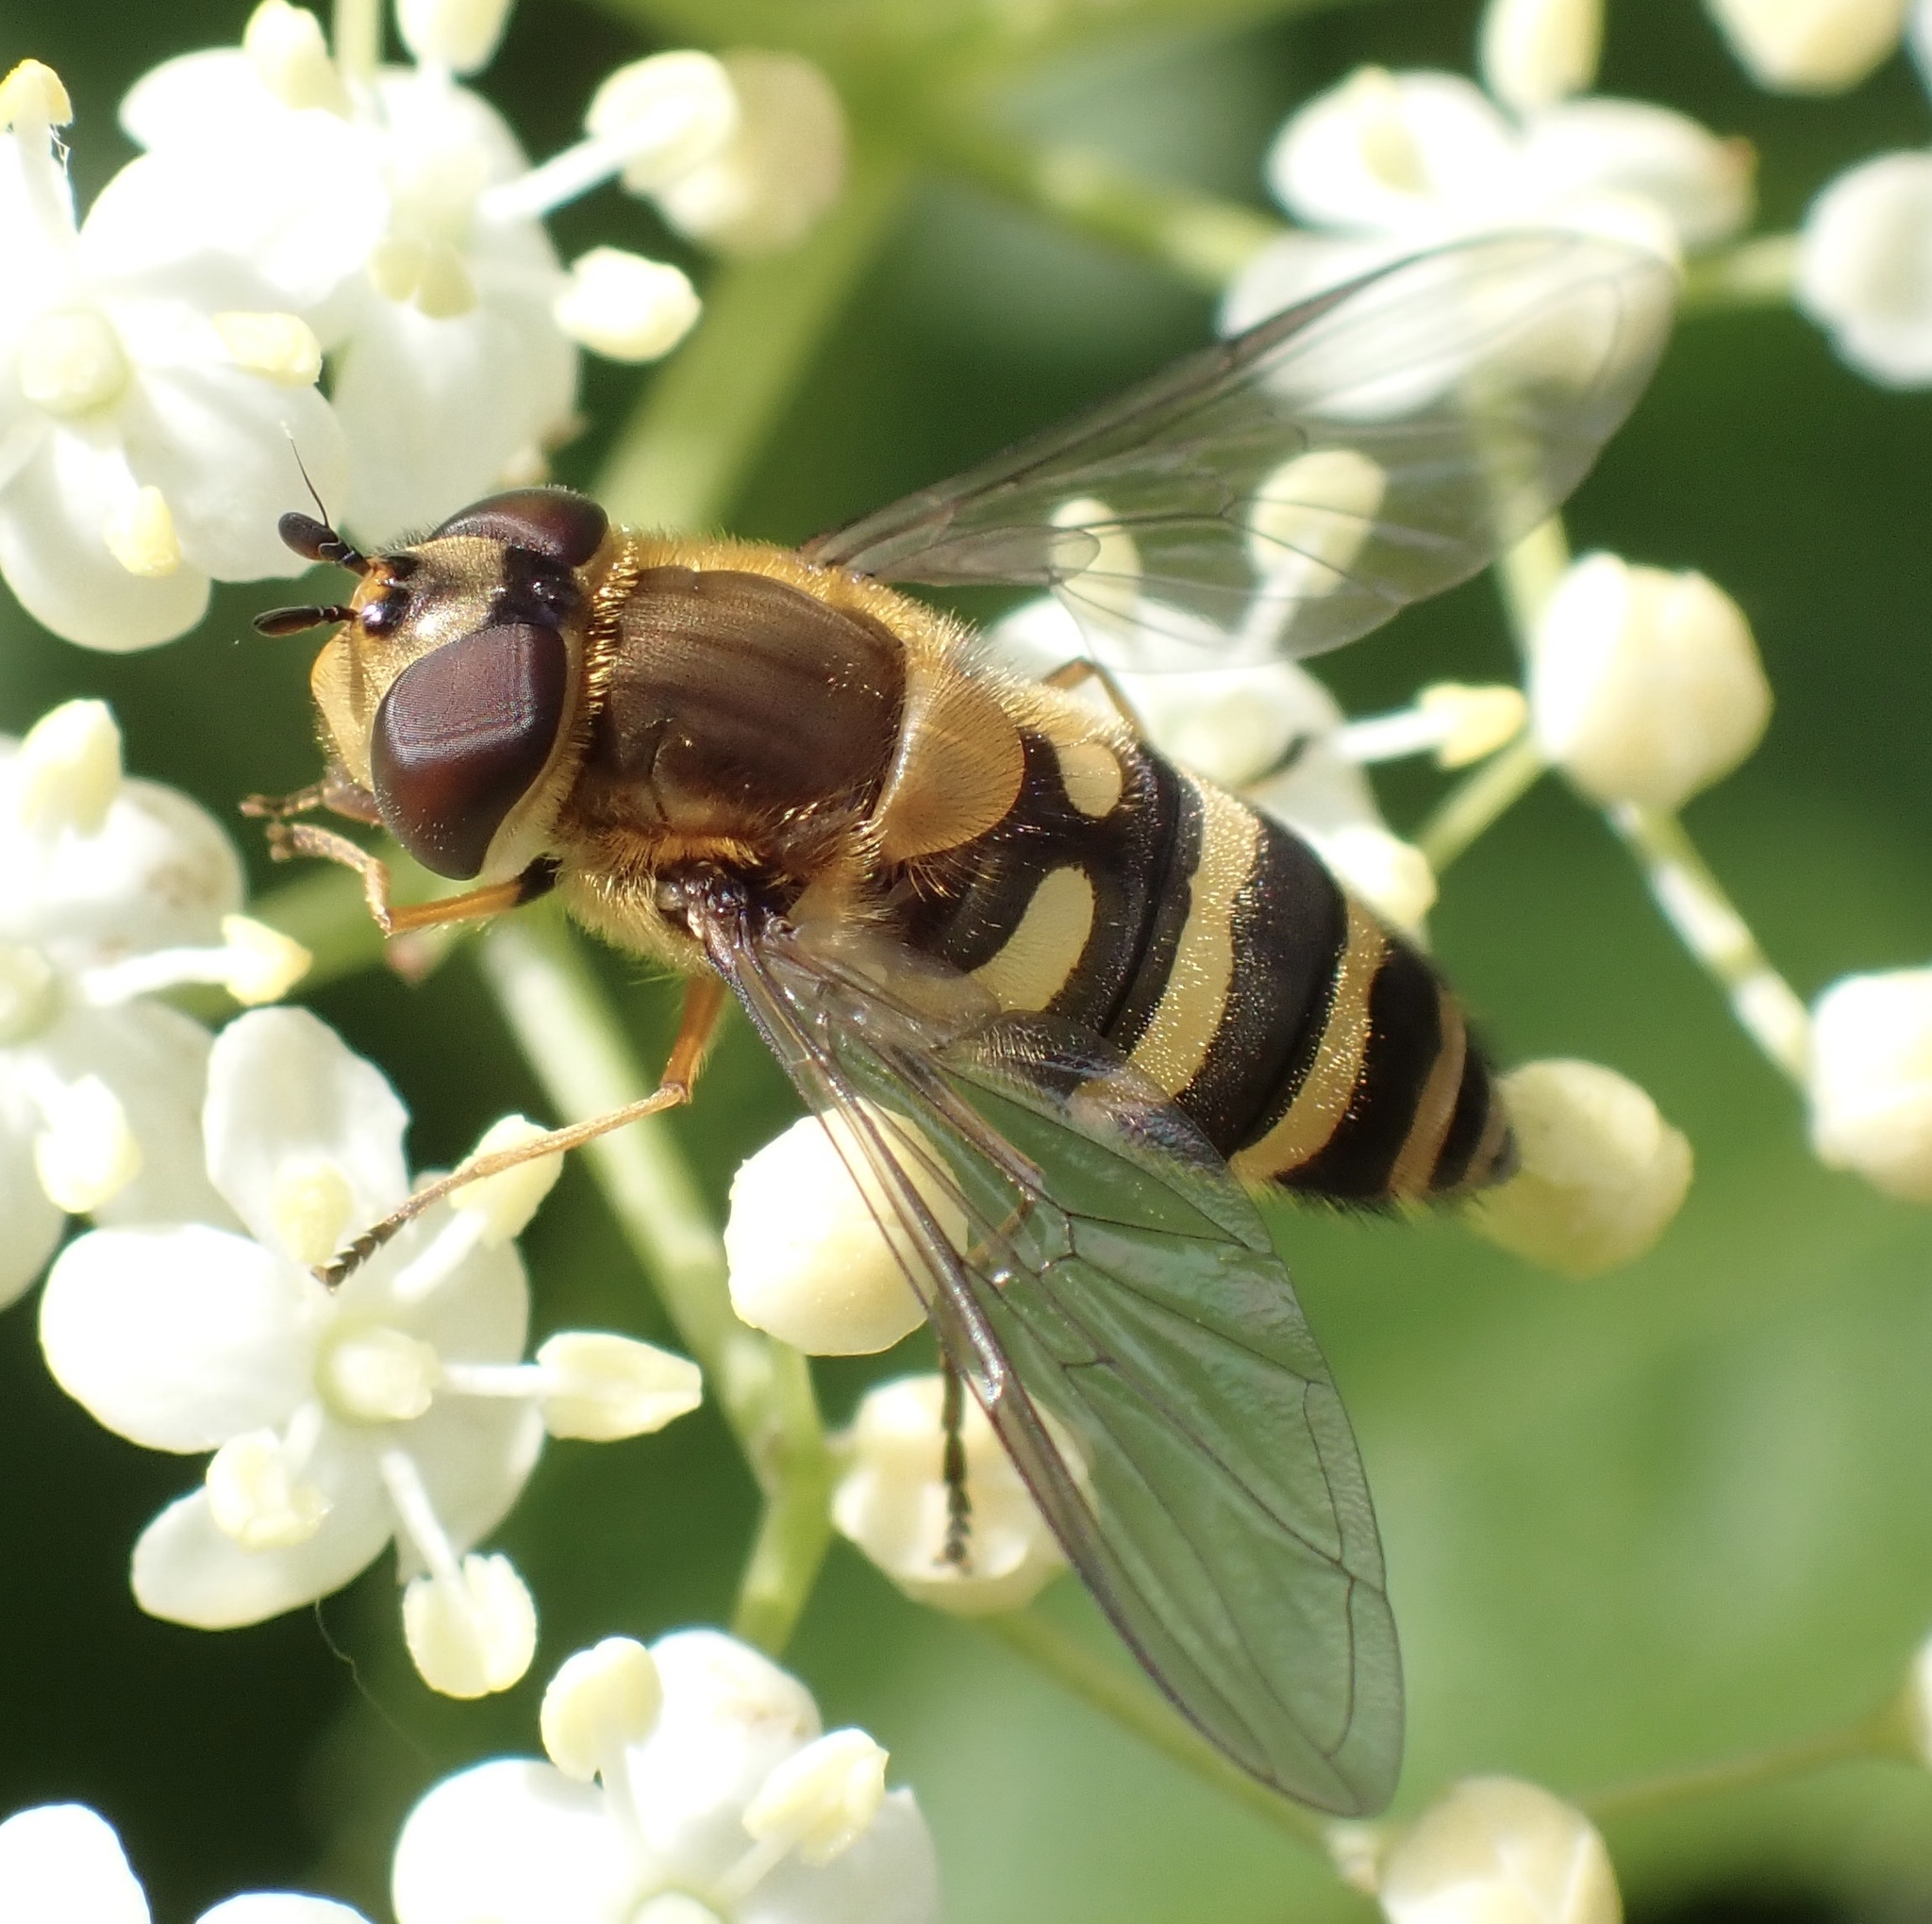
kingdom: Animalia
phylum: Arthropoda
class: Insecta
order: Diptera
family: Syrphidae
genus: Syrphus
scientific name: Syrphus torvus
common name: Hairy-eyed flower fly
